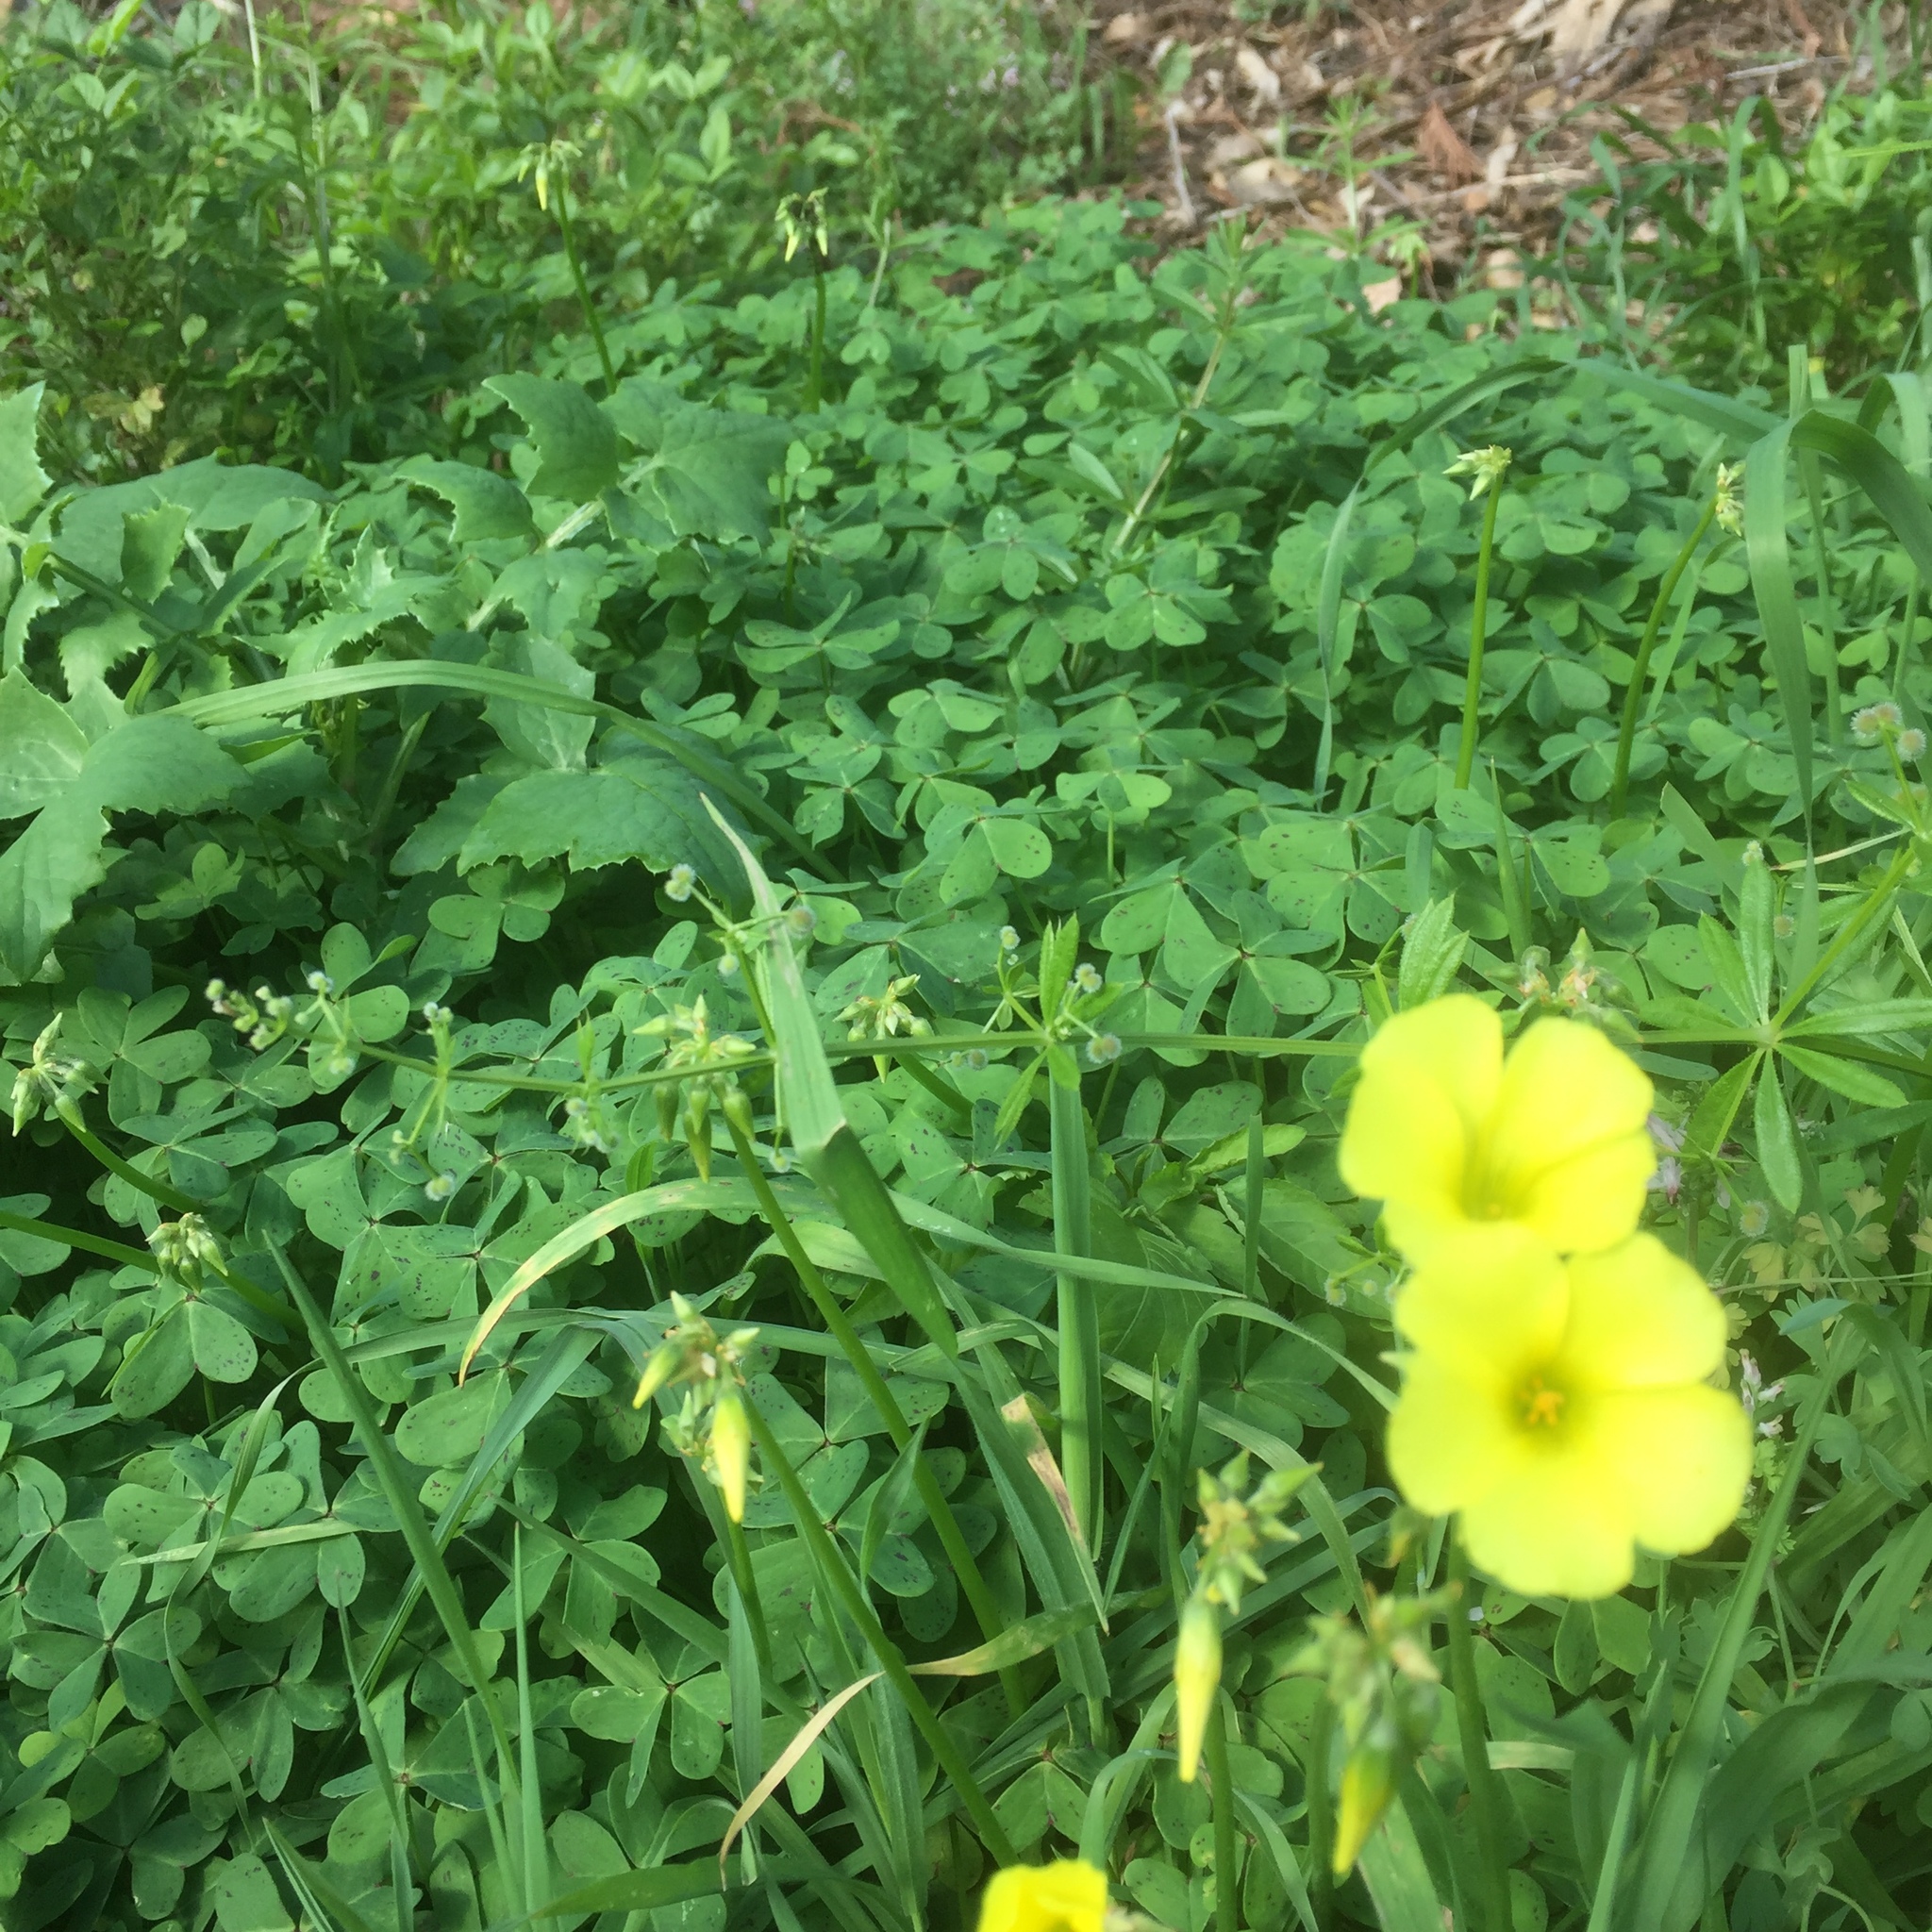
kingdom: Plantae
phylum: Tracheophyta
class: Magnoliopsida
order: Oxalidales
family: Oxalidaceae
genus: Oxalis
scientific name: Oxalis pes-caprae
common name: Bermuda-buttercup
